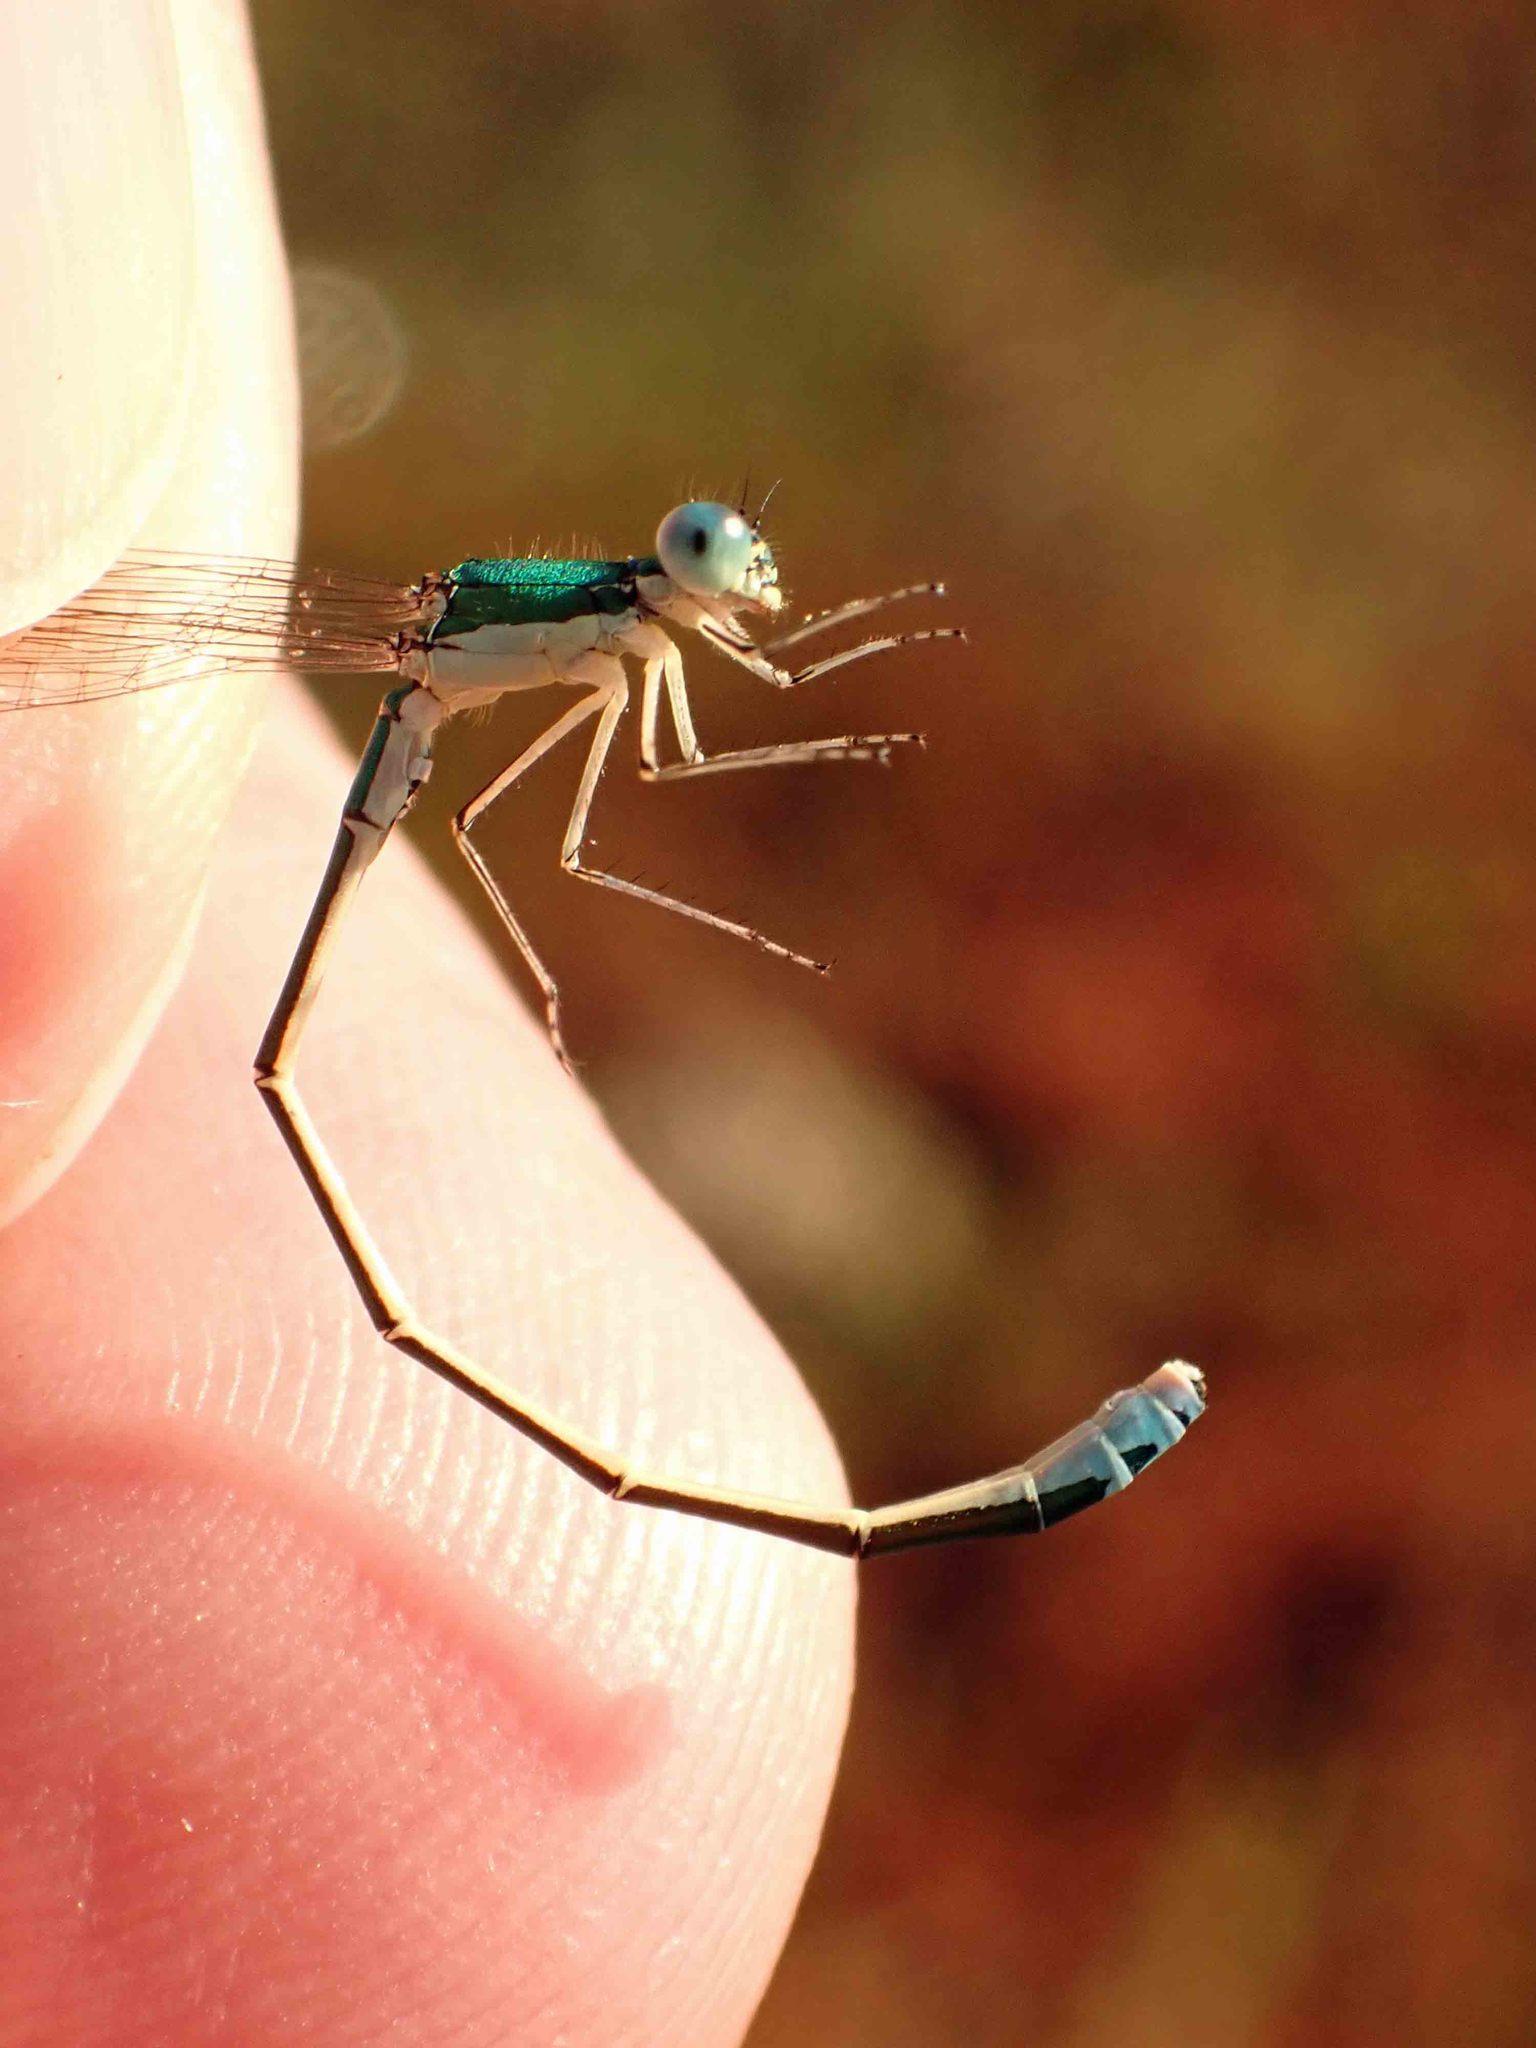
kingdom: Animalia
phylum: Arthropoda
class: Insecta
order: Odonata
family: Coenagrionidae
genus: Nehalennia
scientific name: Nehalennia irene
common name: Sedge sprite
